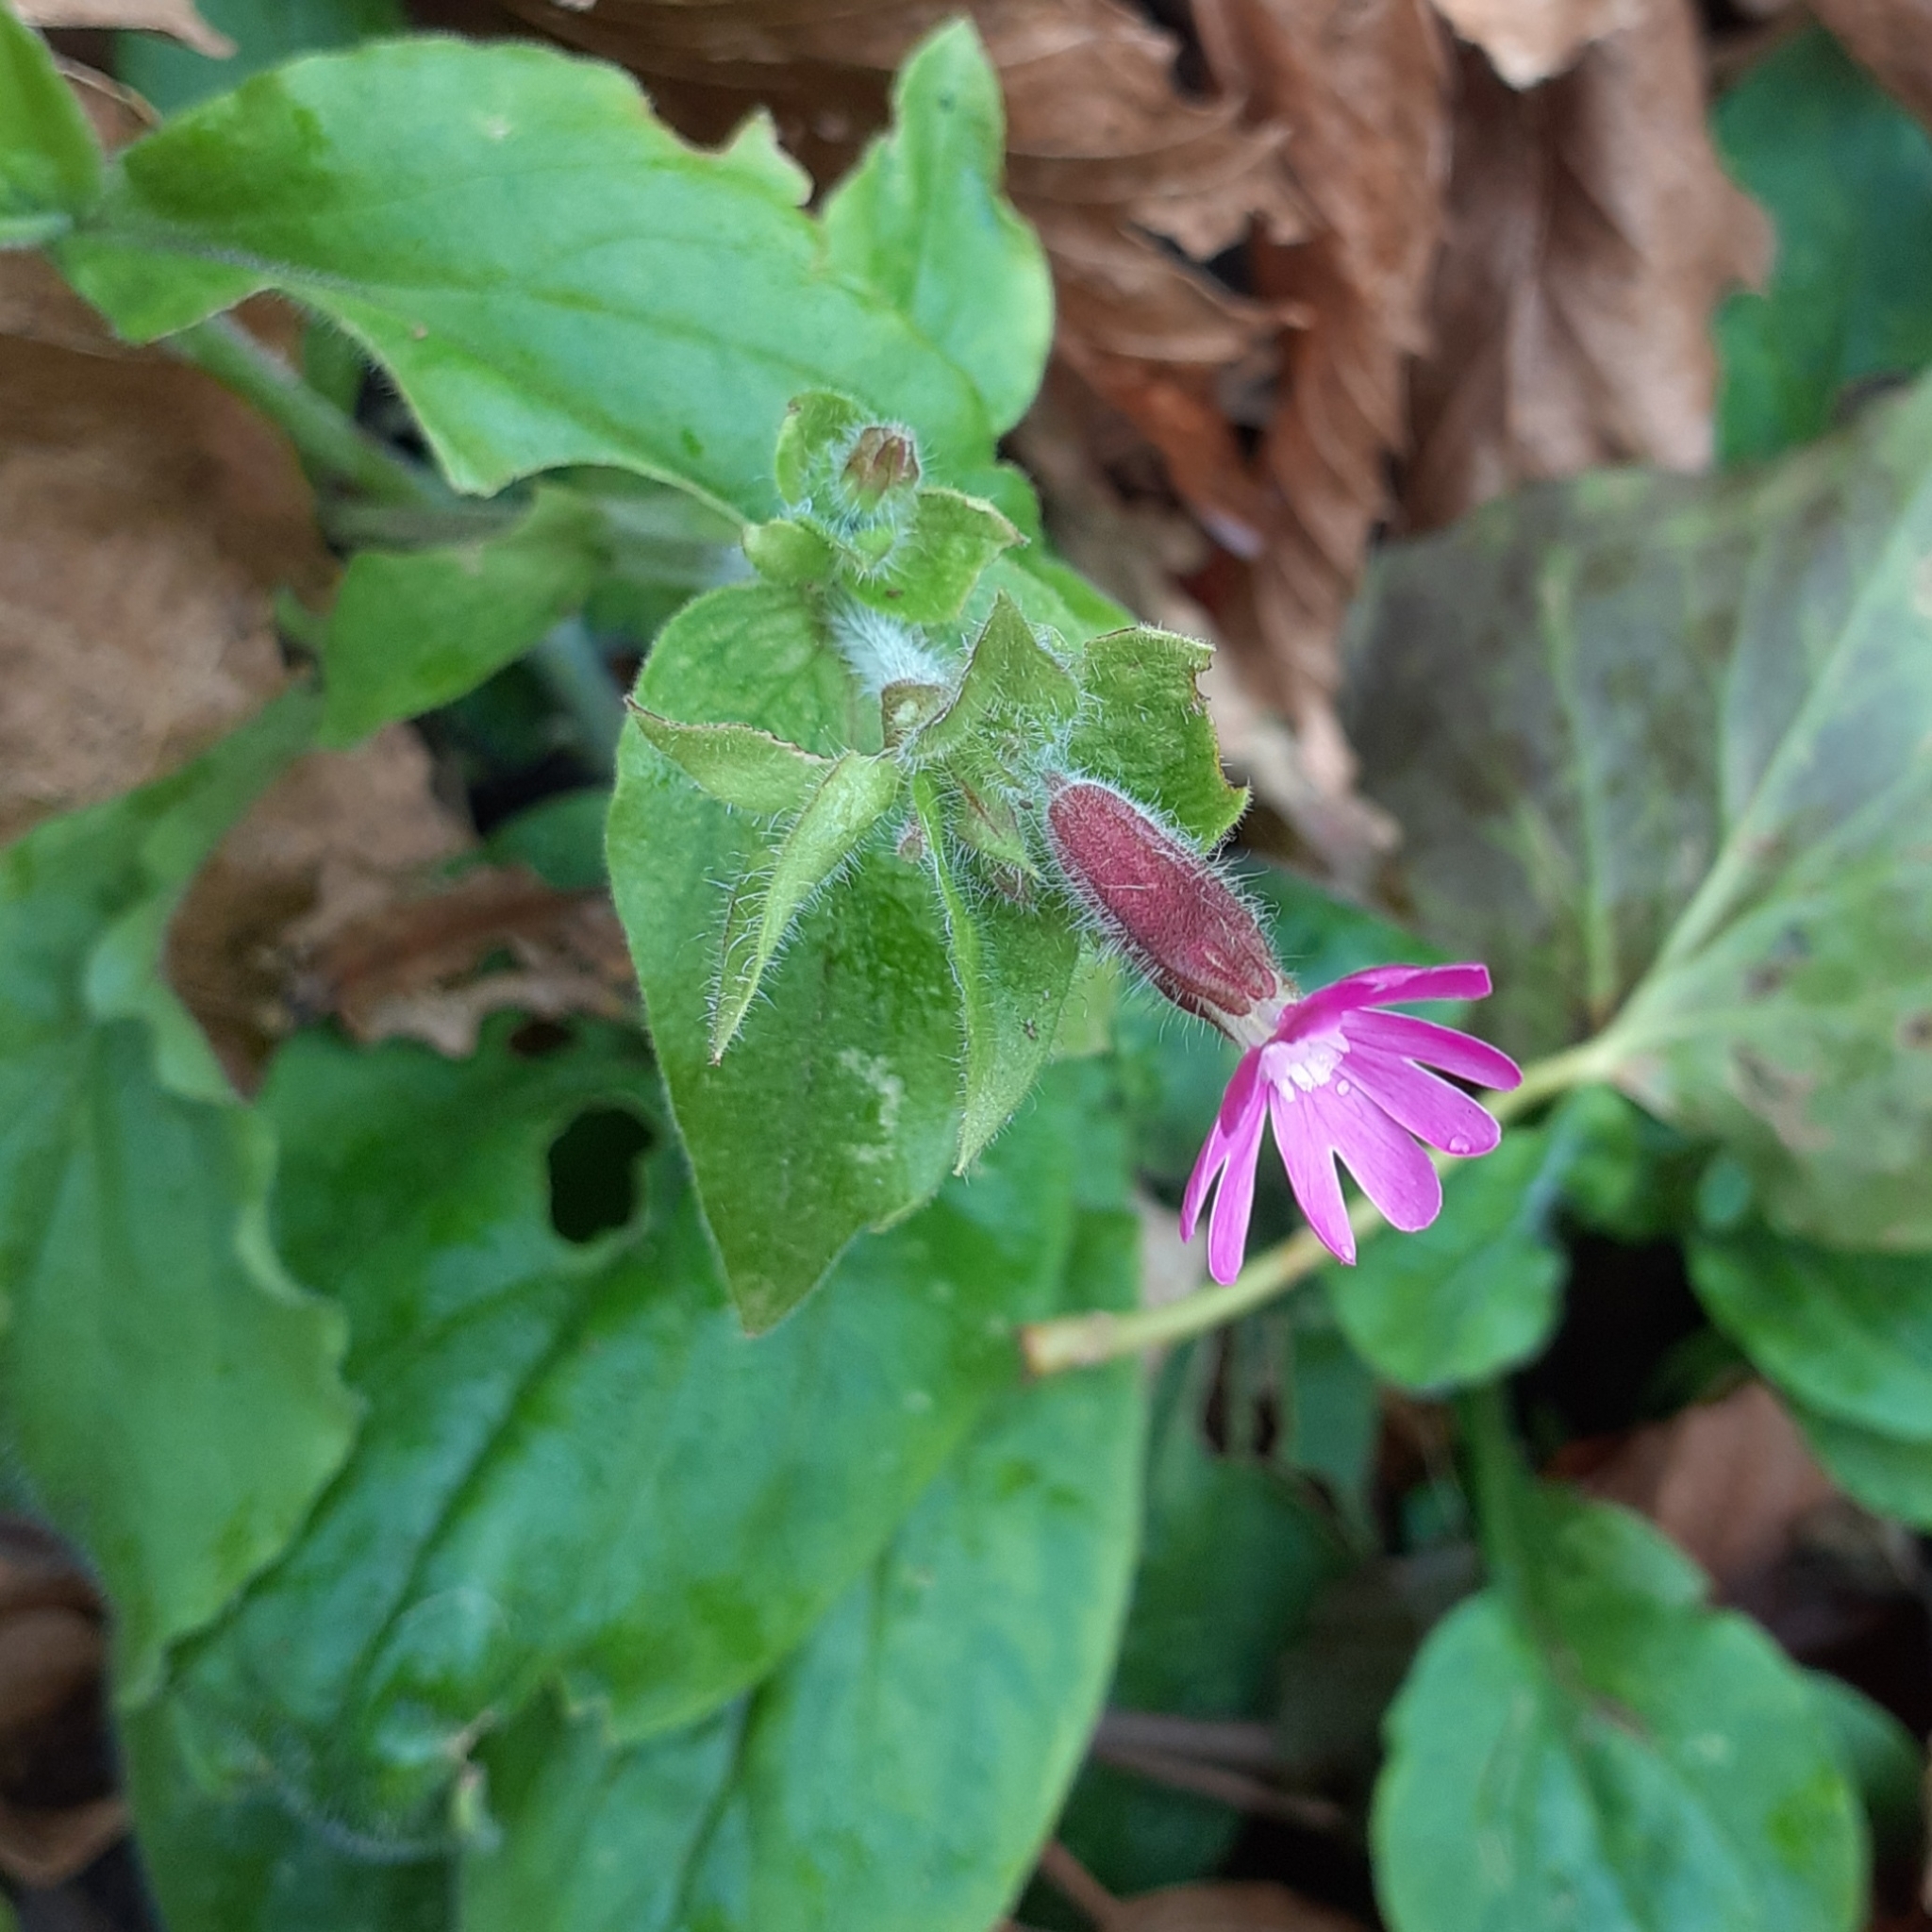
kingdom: Plantae
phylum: Tracheophyta
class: Magnoliopsida
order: Caryophyllales
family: Caryophyllaceae
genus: Silene
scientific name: Silene dioica
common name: Red campion
